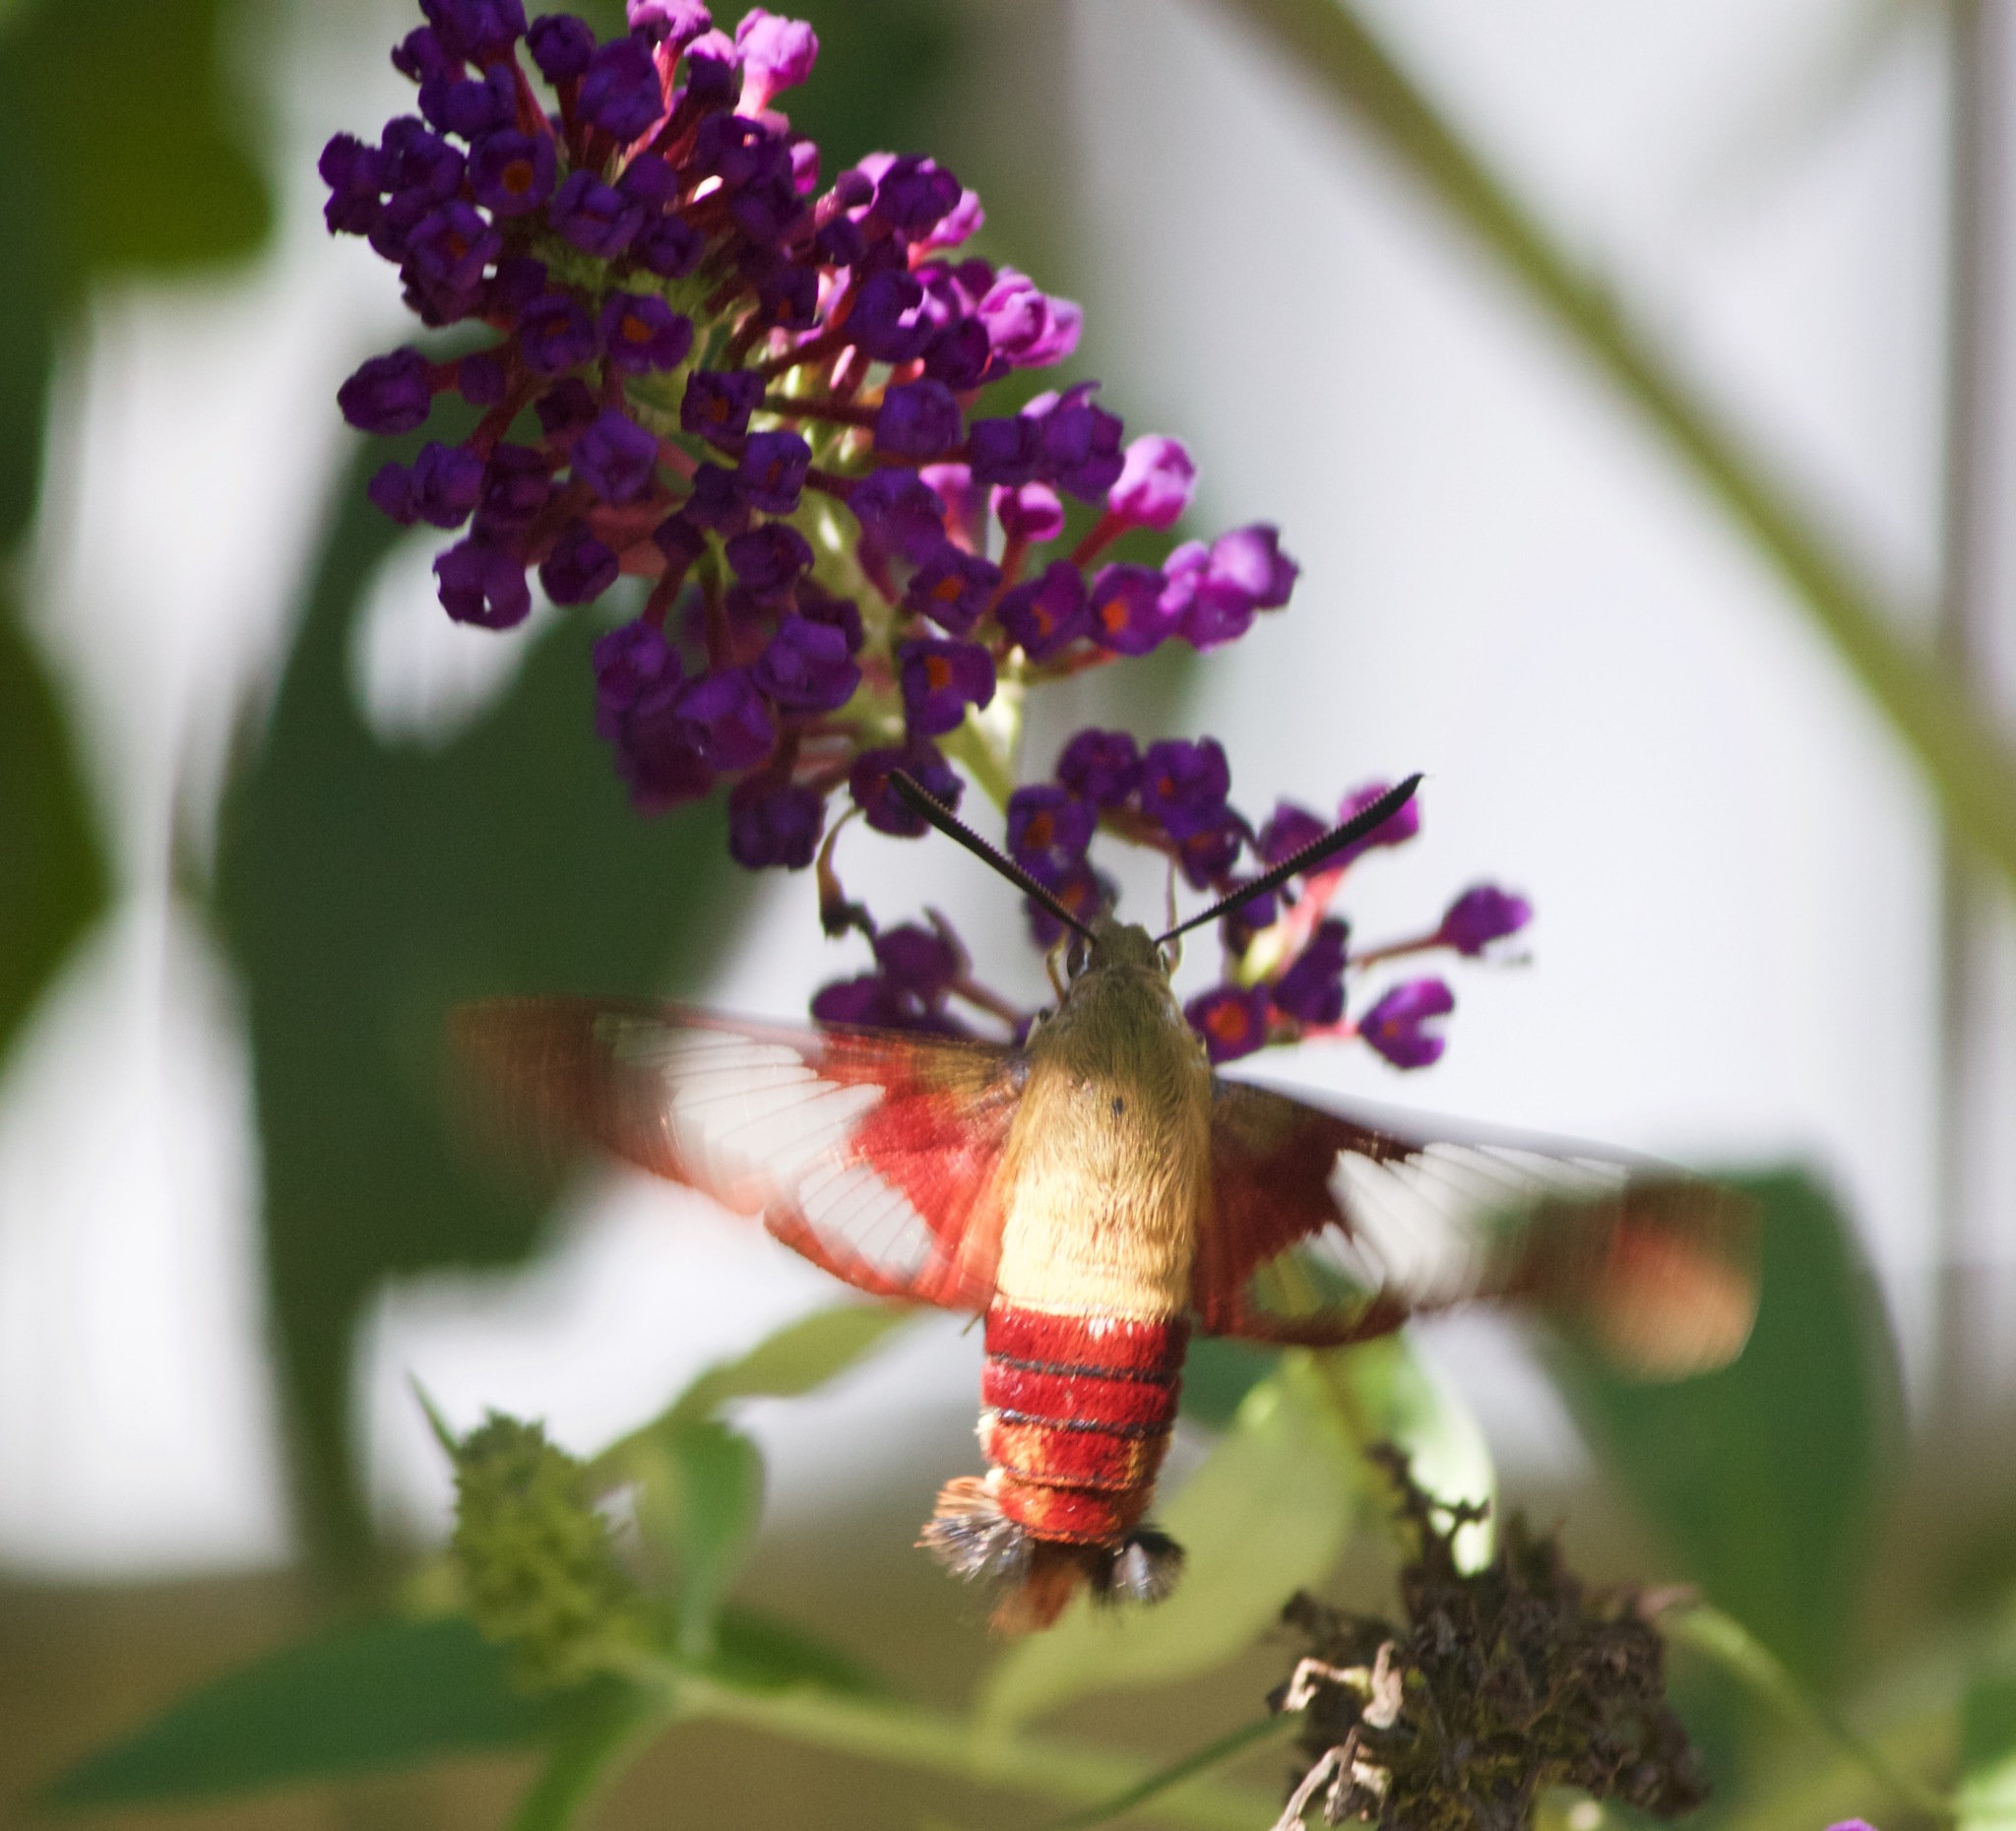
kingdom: Animalia
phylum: Arthropoda
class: Insecta
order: Lepidoptera
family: Sphingidae
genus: Hemaris
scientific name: Hemaris thysbe
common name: Common clear-wing
